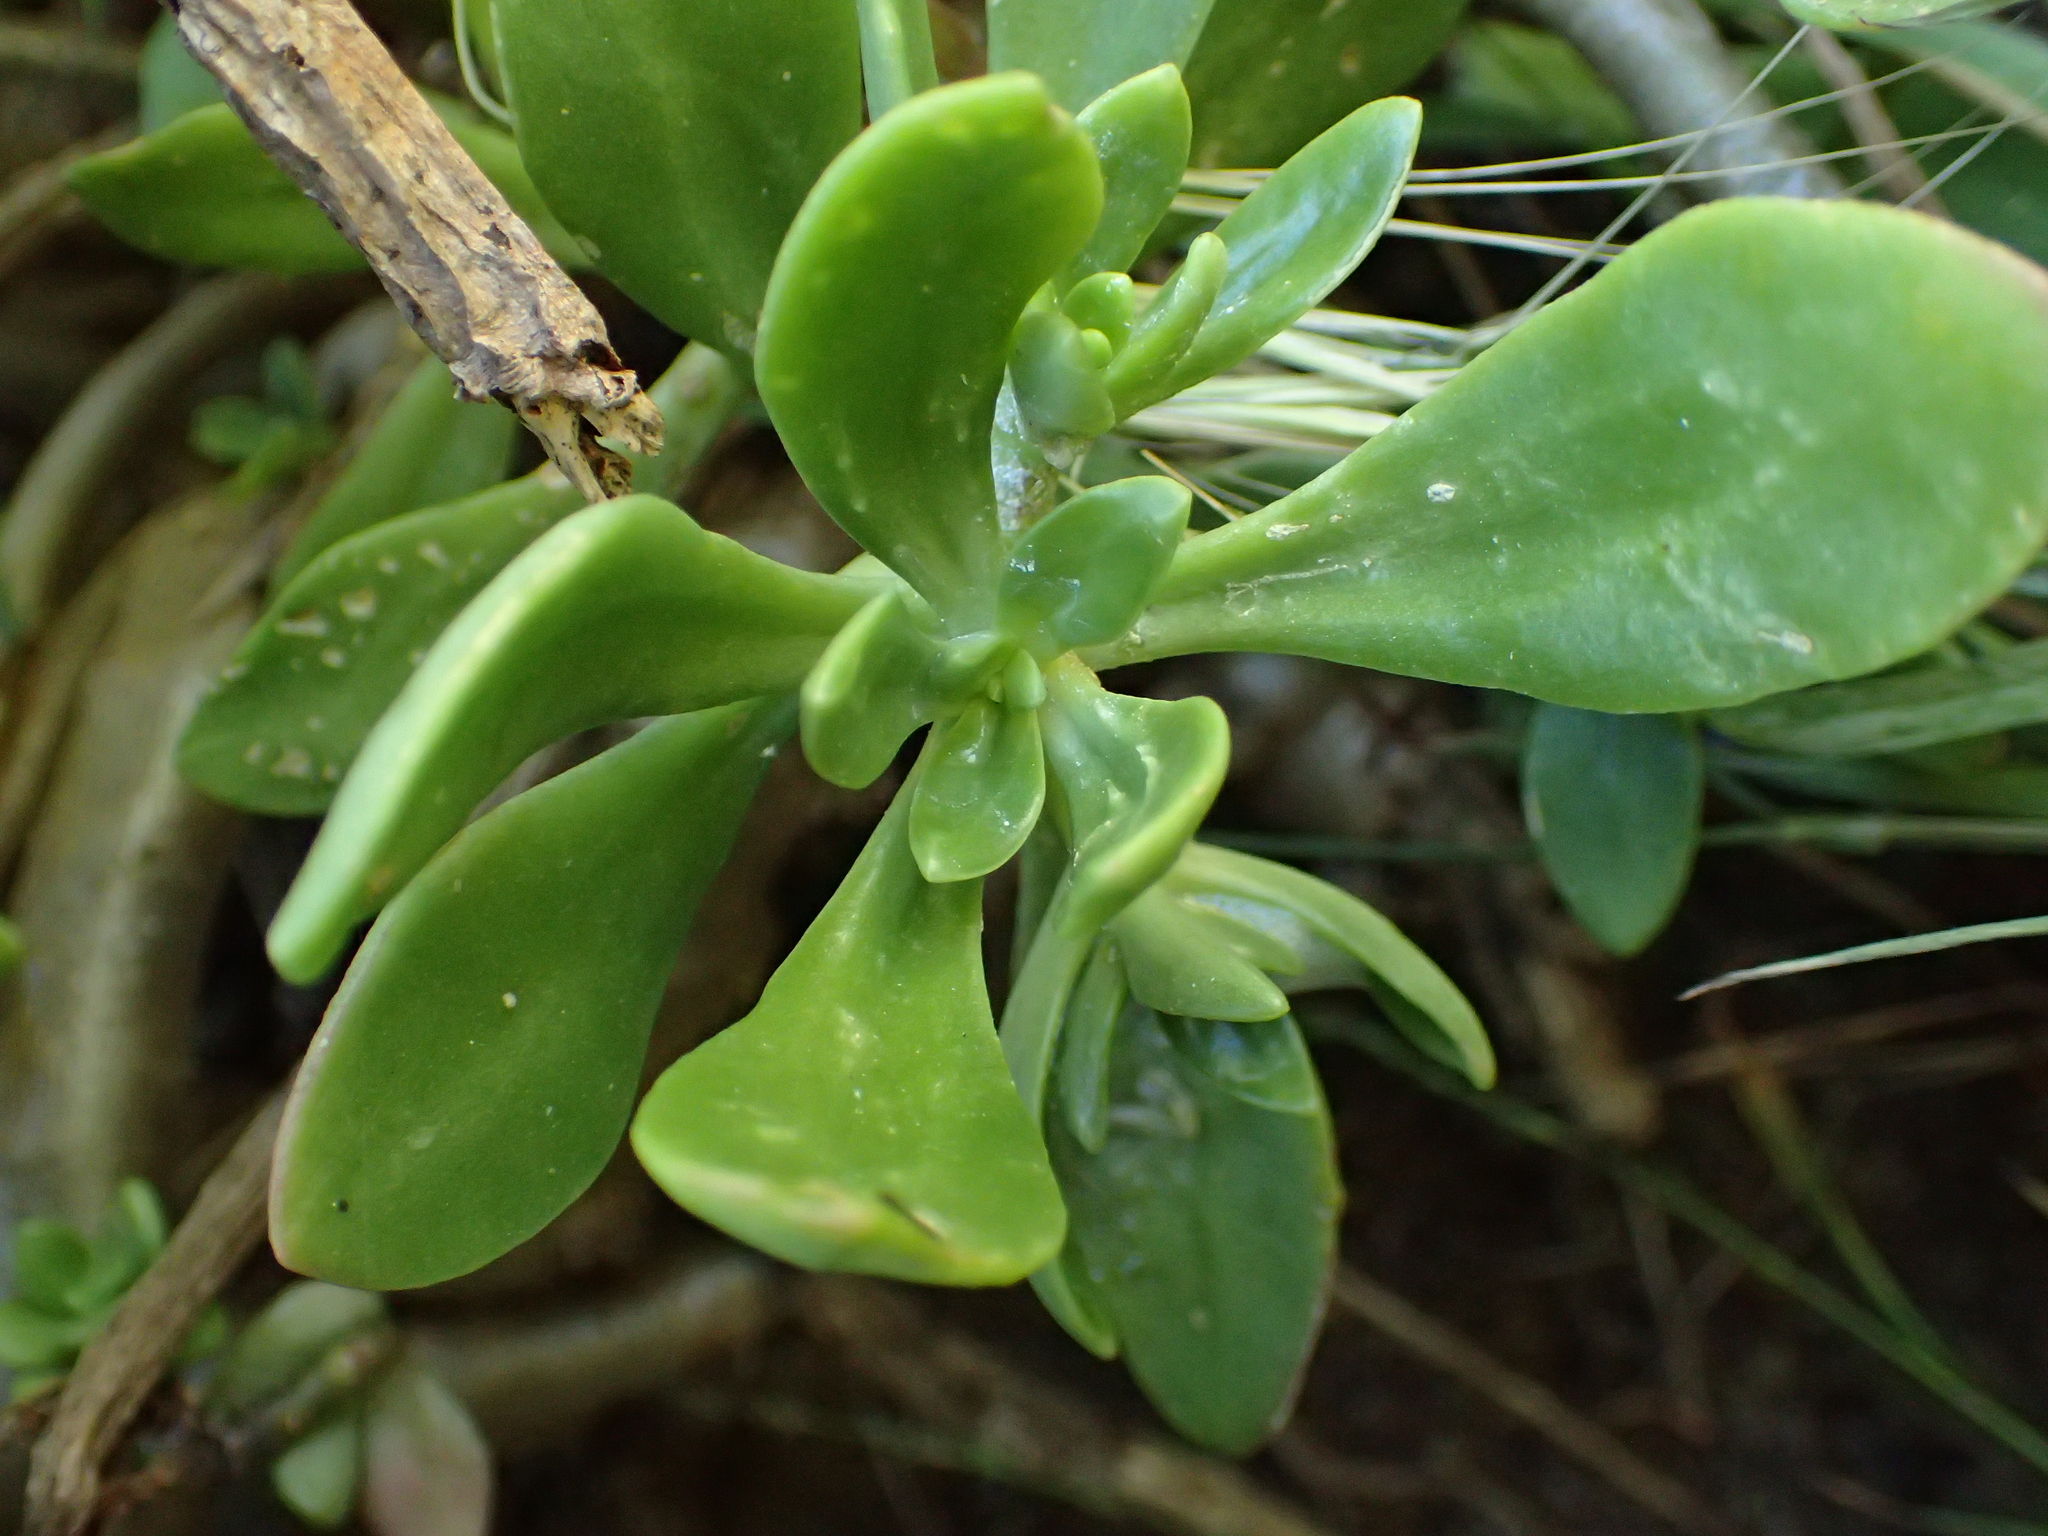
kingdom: Plantae
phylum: Tracheophyta
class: Magnoliopsida
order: Saxifragales
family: Crassulaceae
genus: Sedum
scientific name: Sedum praealtum
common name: Greater mexican-stonecrop
